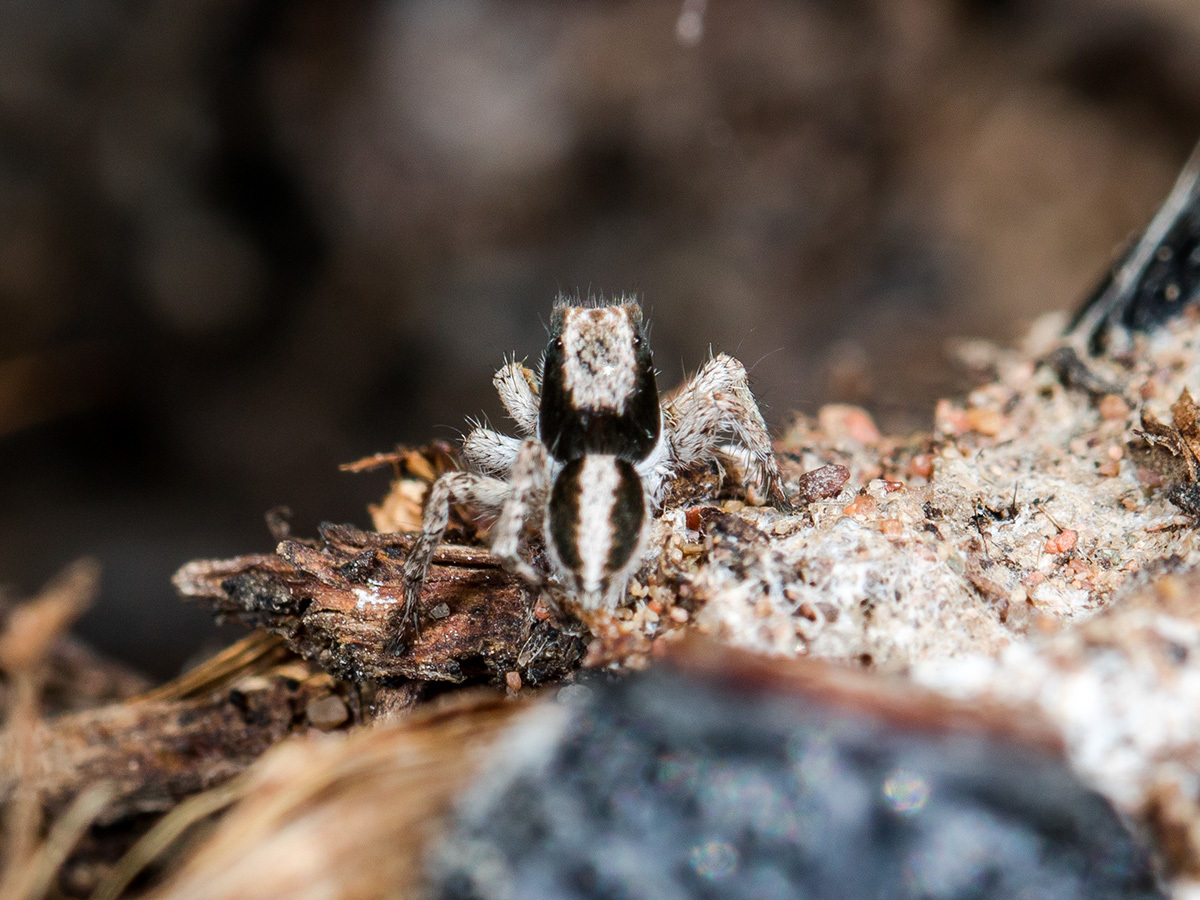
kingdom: Animalia
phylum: Arthropoda
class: Arachnida
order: Araneae
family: Salticidae
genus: Aelurillus
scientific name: Aelurillus nenilini
